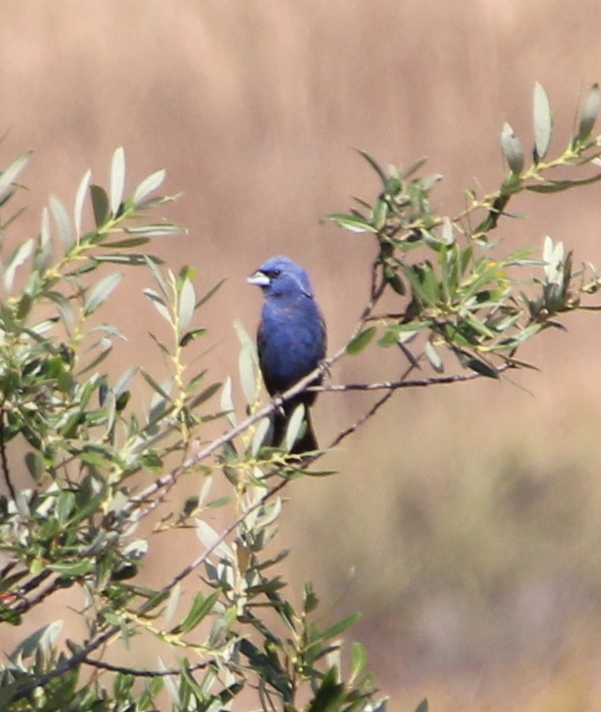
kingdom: Animalia
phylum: Chordata
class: Aves
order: Passeriformes
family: Cardinalidae
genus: Passerina
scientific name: Passerina caerulea
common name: Blue grosbeak
